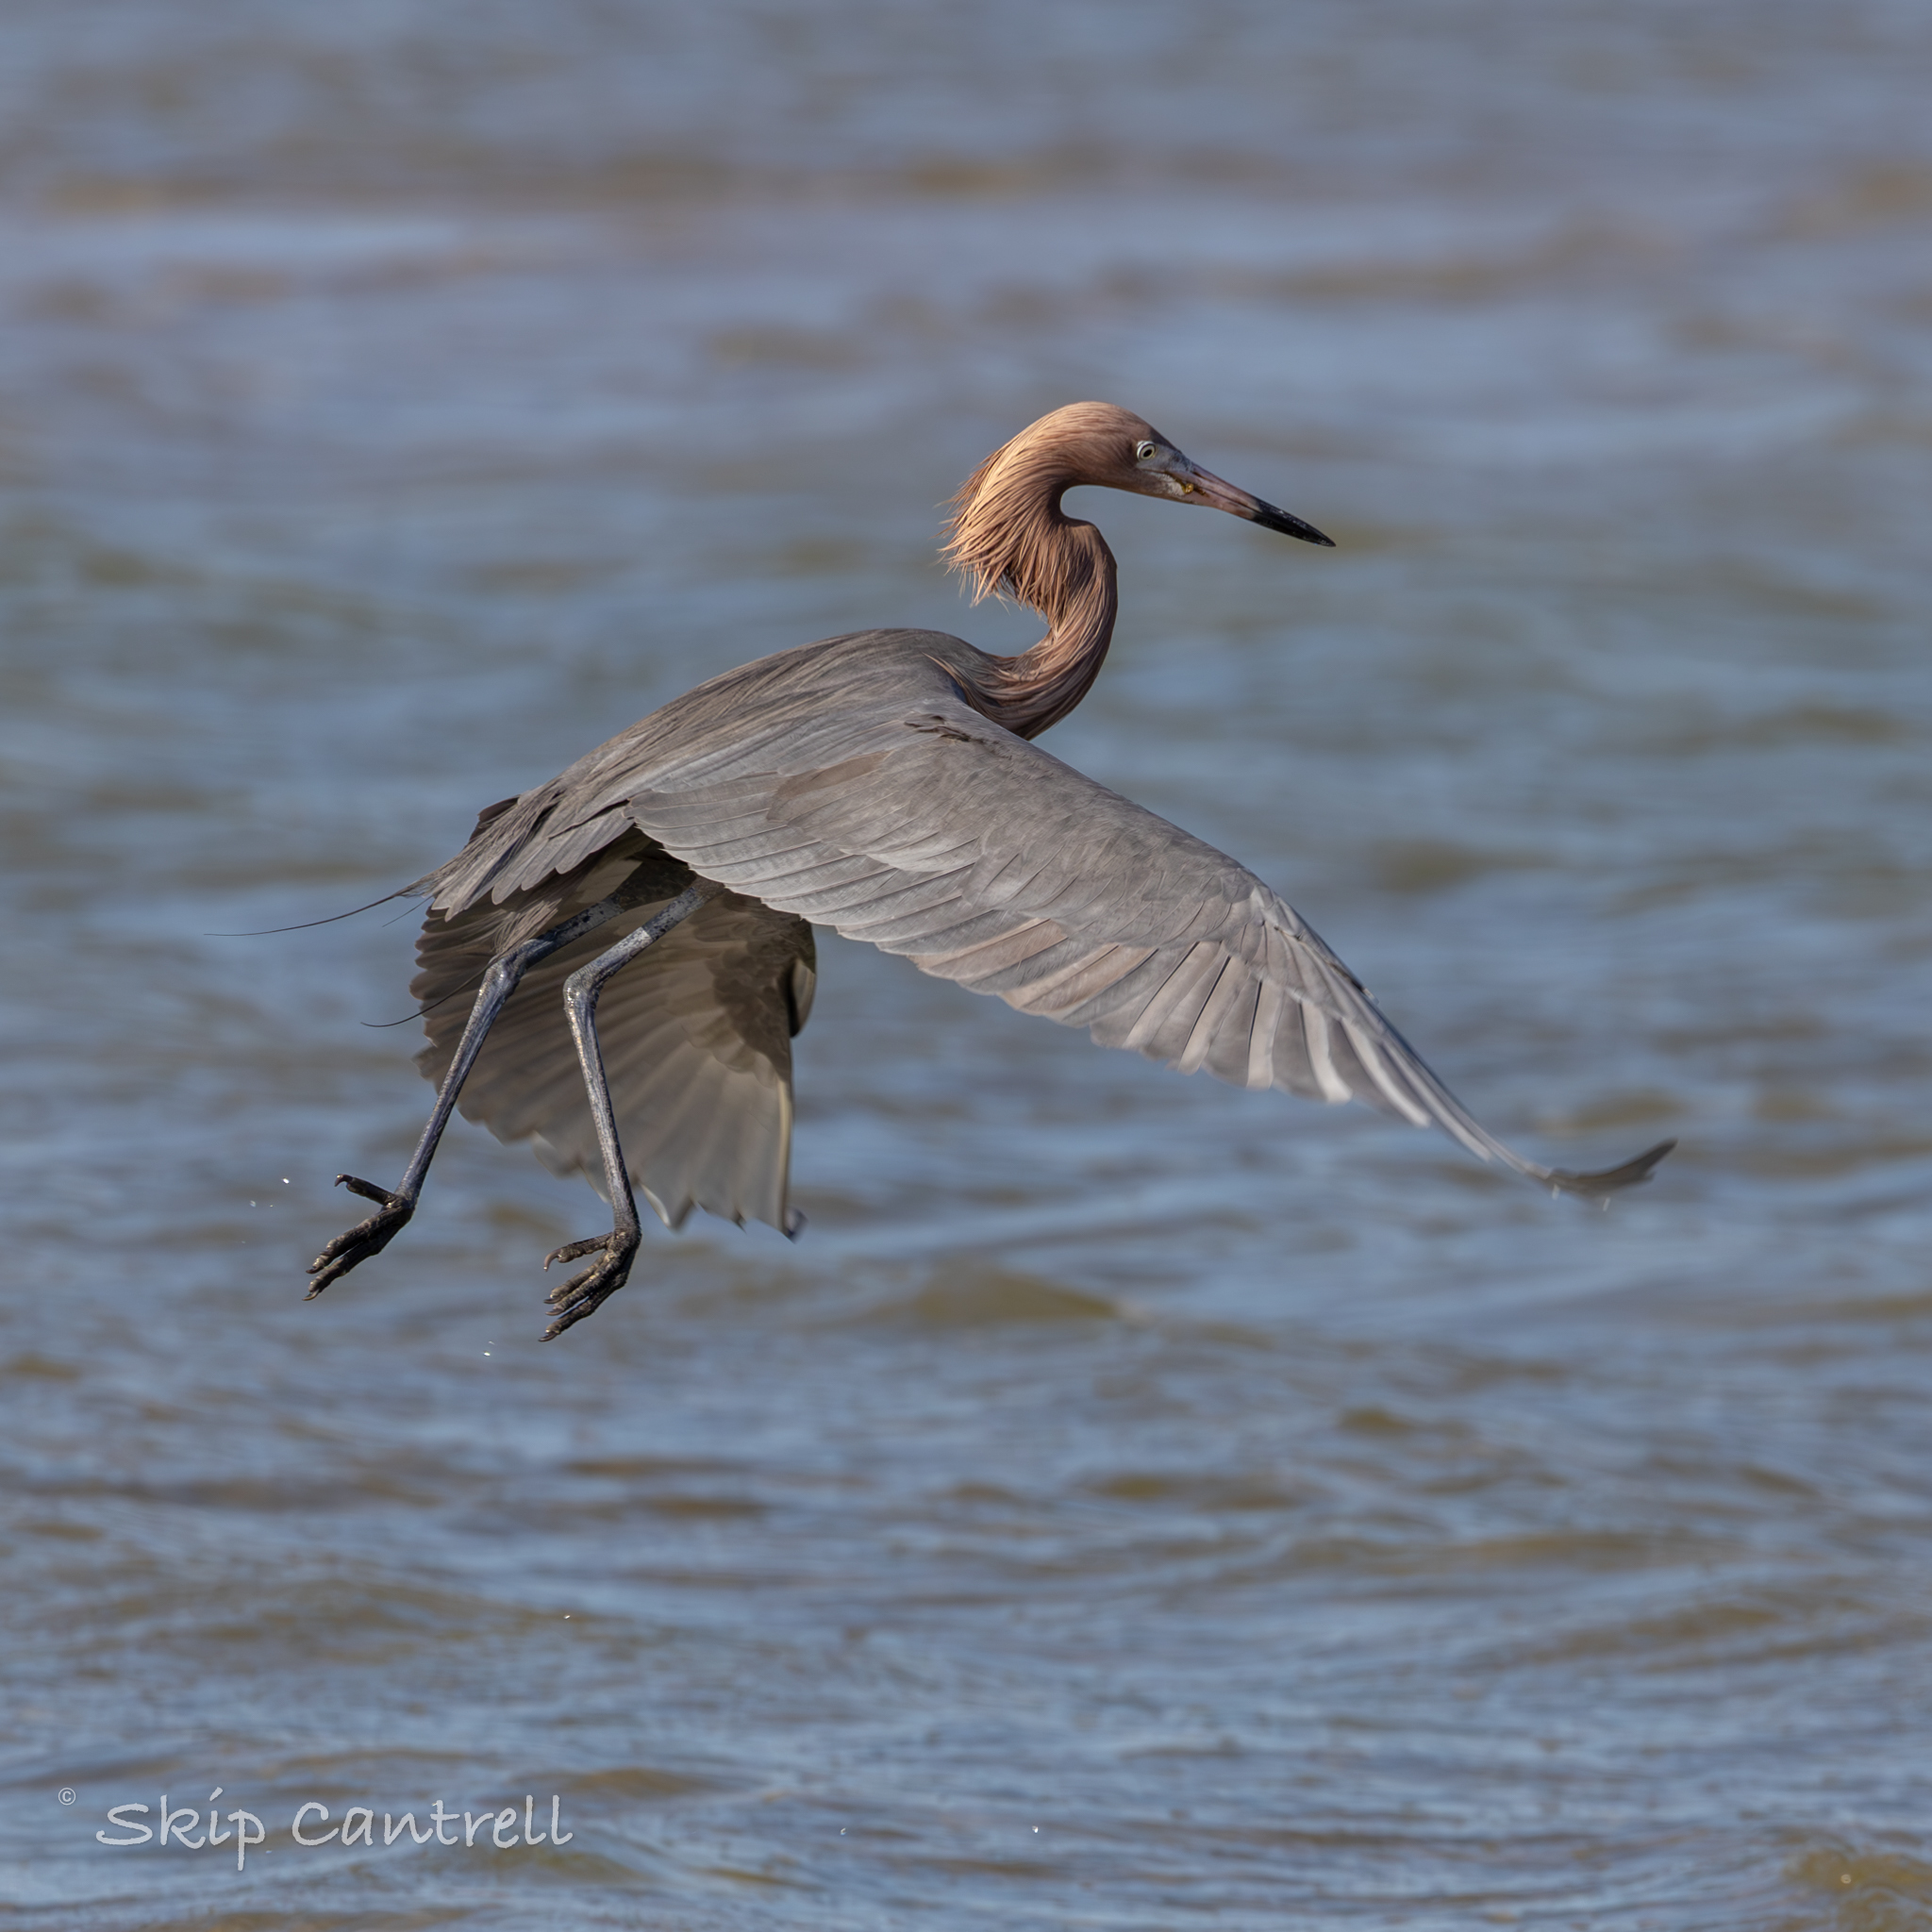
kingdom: Animalia
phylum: Chordata
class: Aves
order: Pelecaniformes
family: Ardeidae
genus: Egretta
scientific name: Egretta rufescens
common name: Reddish egret
